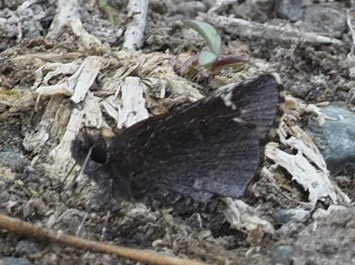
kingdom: Animalia
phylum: Arthropoda
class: Insecta
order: Lepidoptera
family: Hesperiidae
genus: Mastor
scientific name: Mastor vialis
